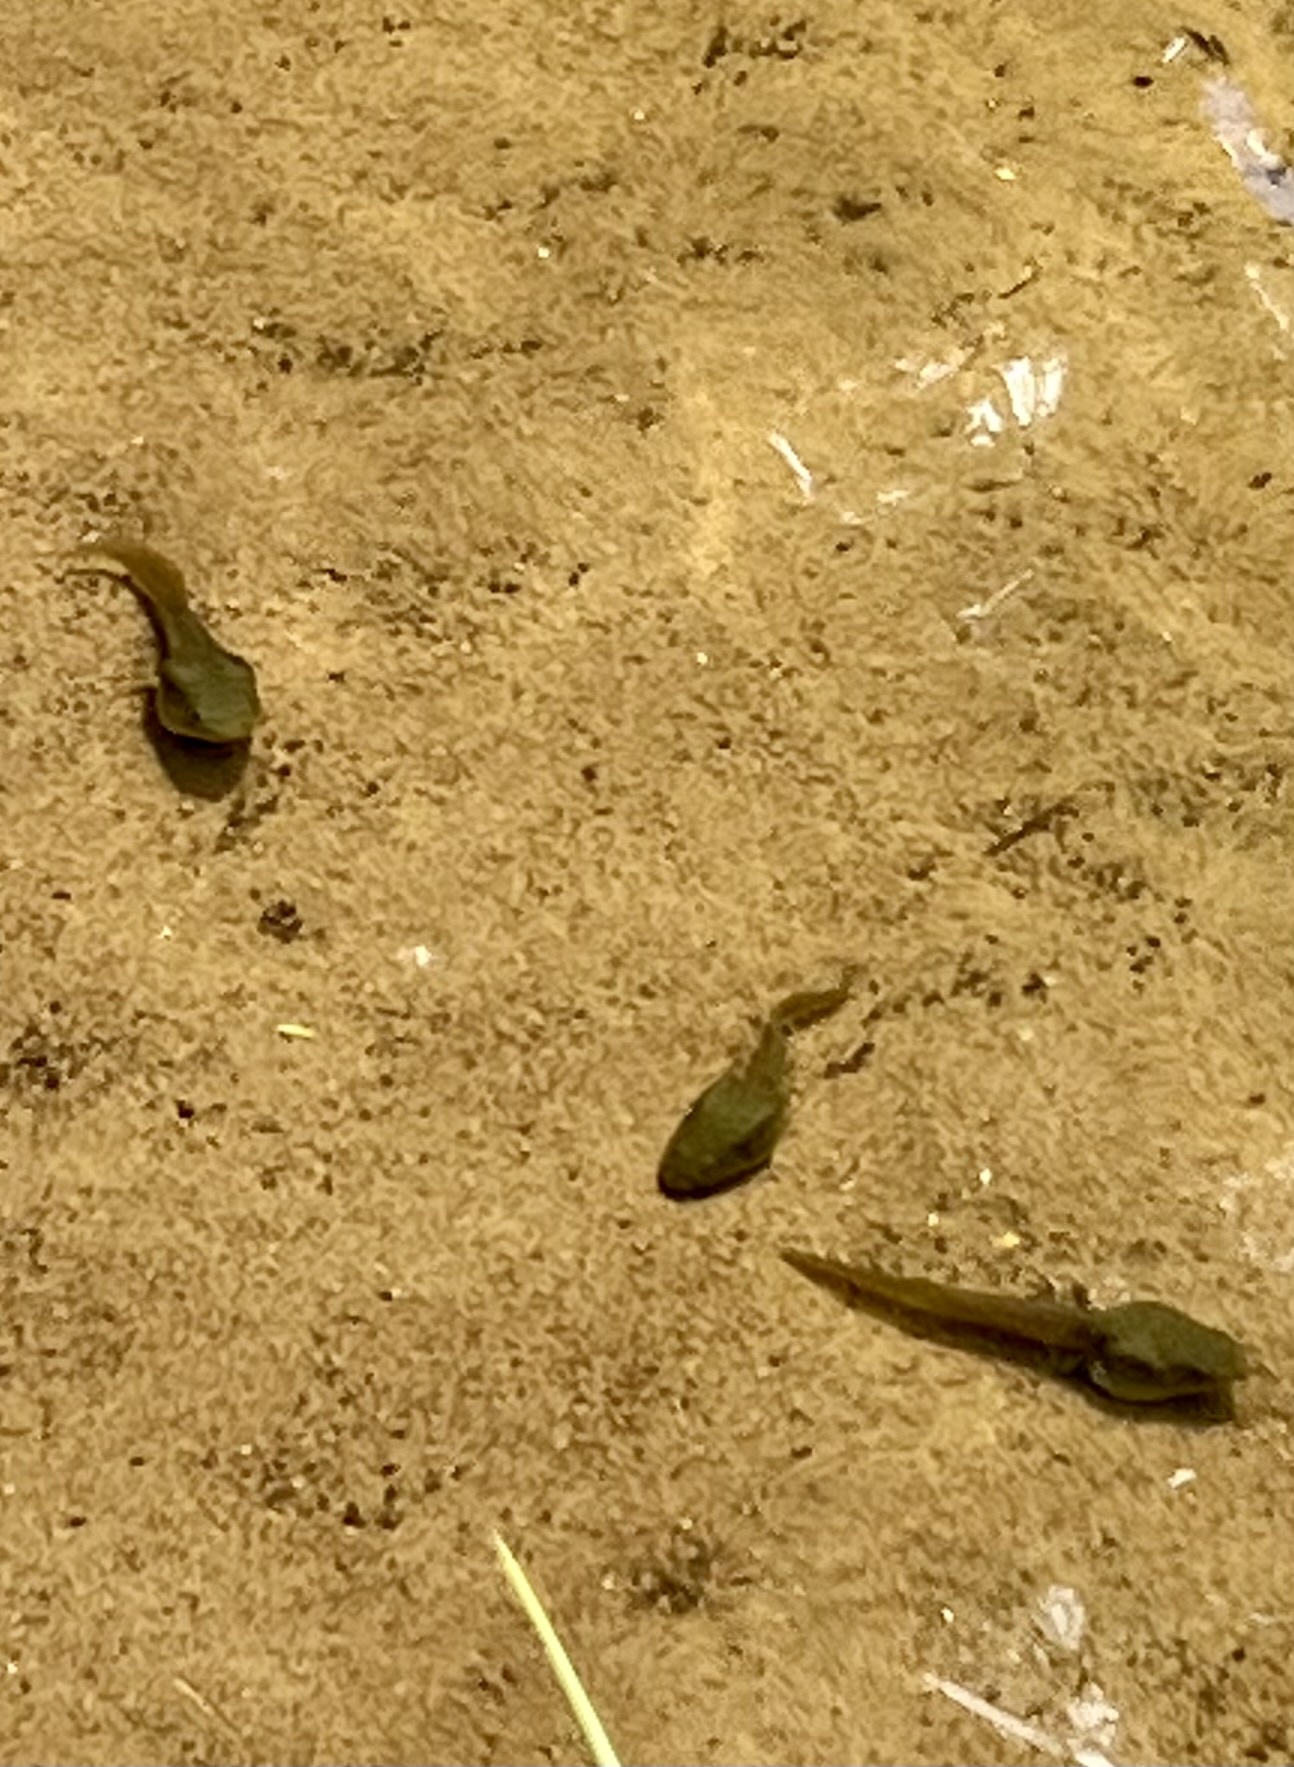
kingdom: Animalia
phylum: Chordata
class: Amphibia
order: Anura
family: Ranidae
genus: Lithobates
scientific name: Lithobates catesbeianus
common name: American bullfrog
